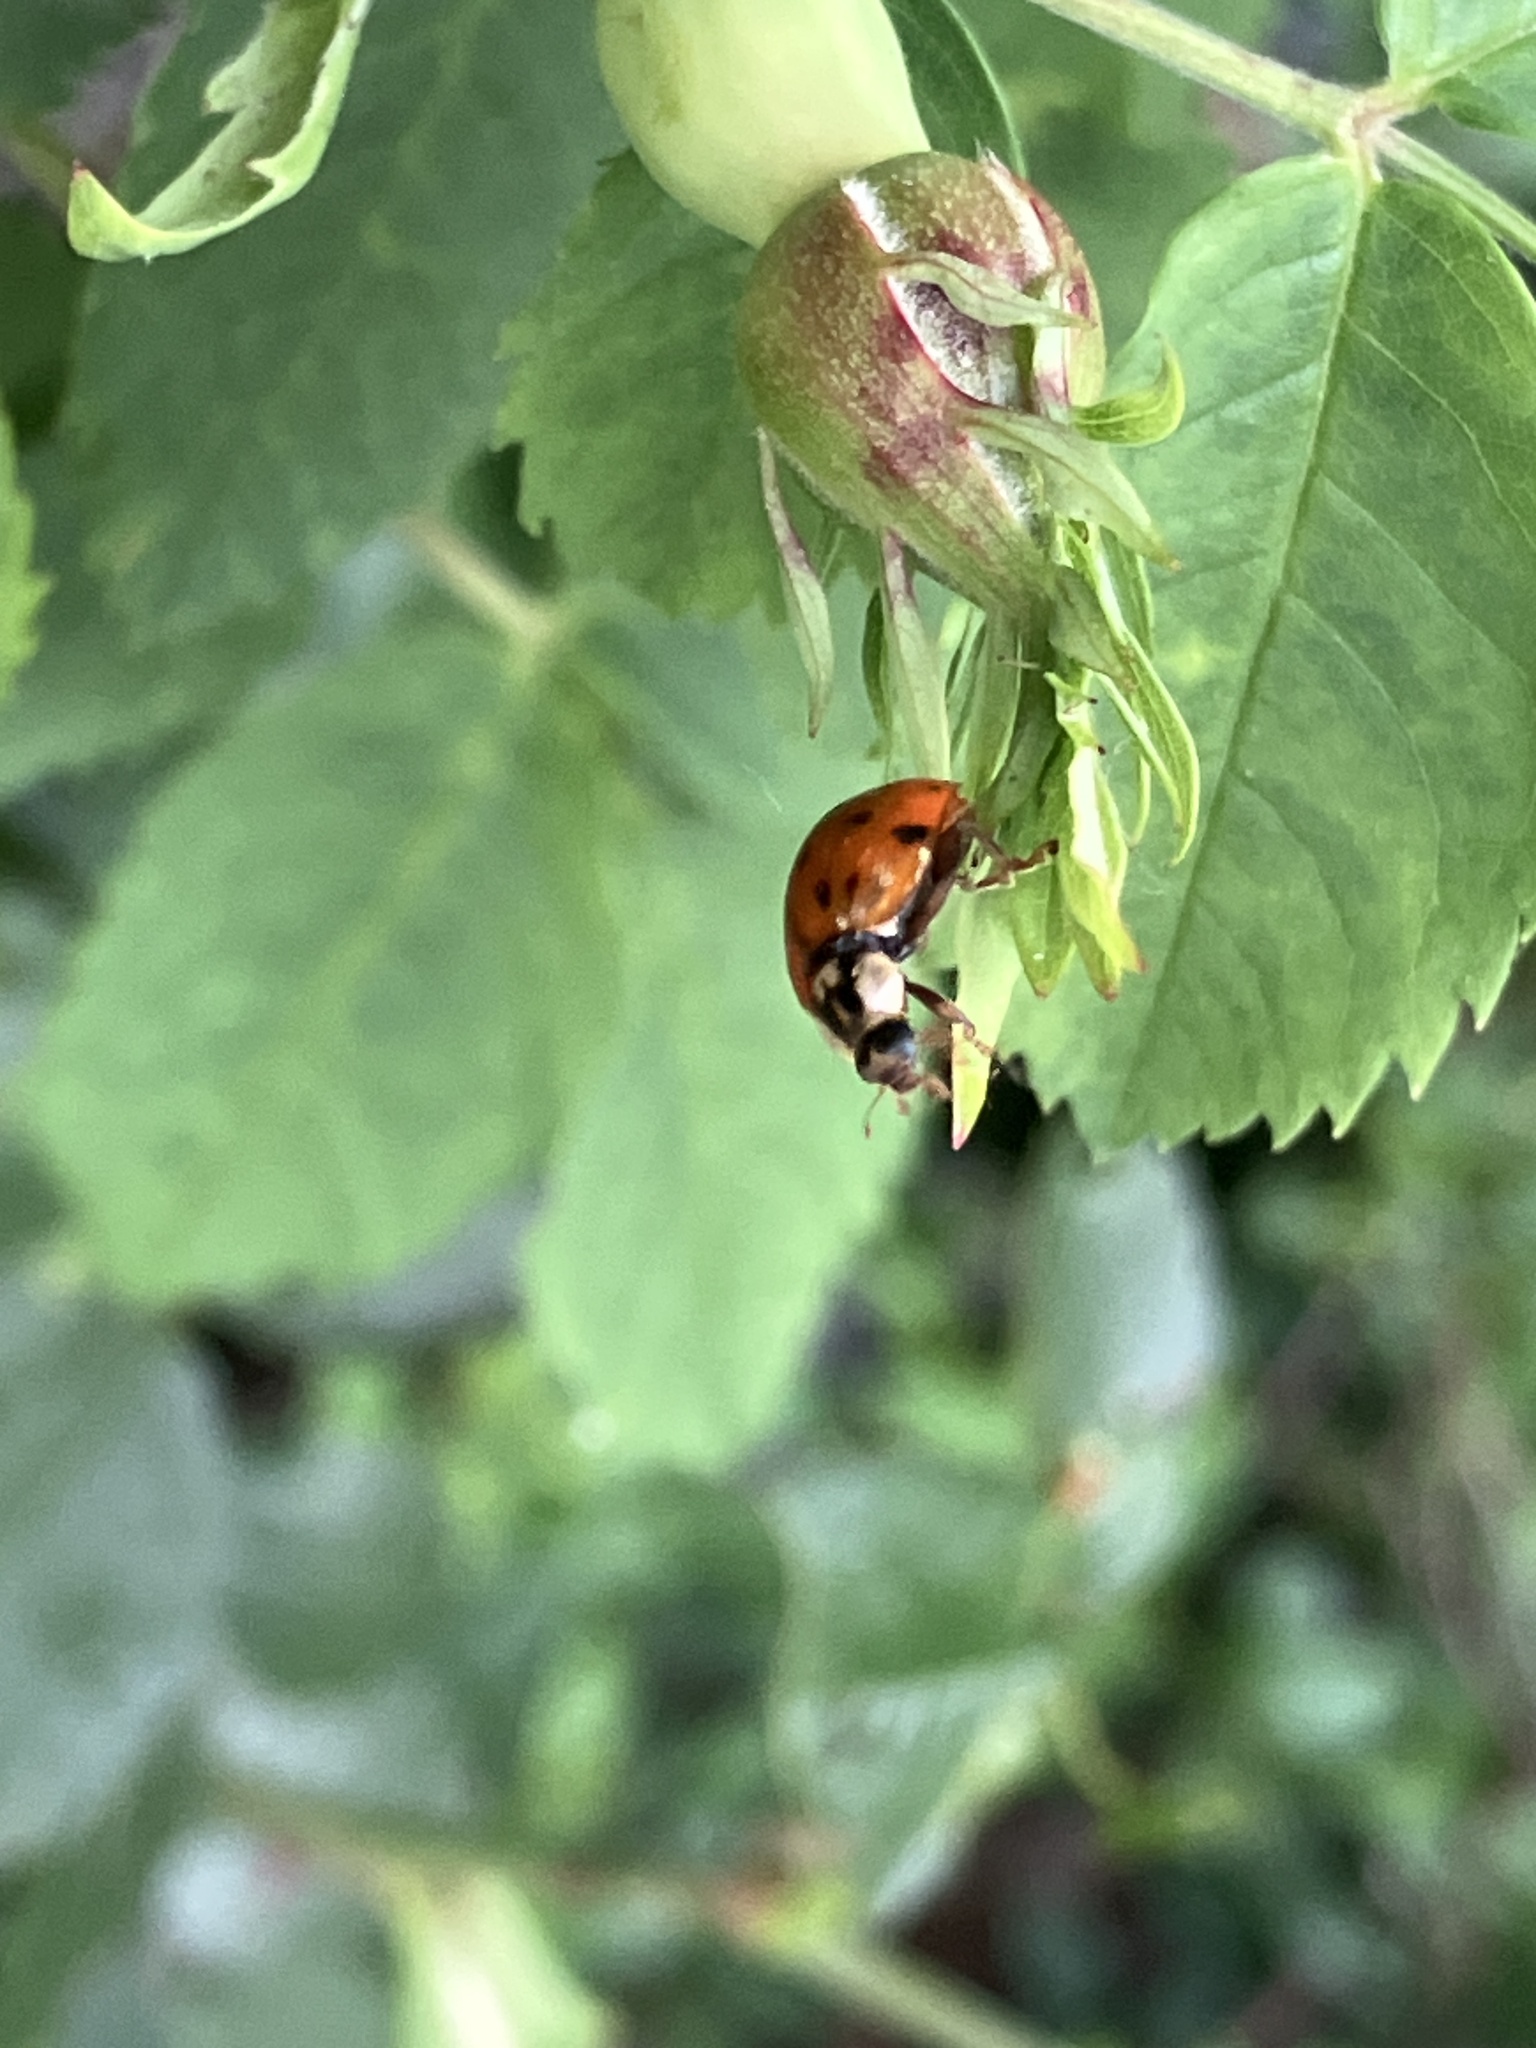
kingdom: Animalia
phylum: Arthropoda
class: Insecta
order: Coleoptera
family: Coccinellidae
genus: Harmonia
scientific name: Harmonia axyridis
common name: Harlequin ladybird
